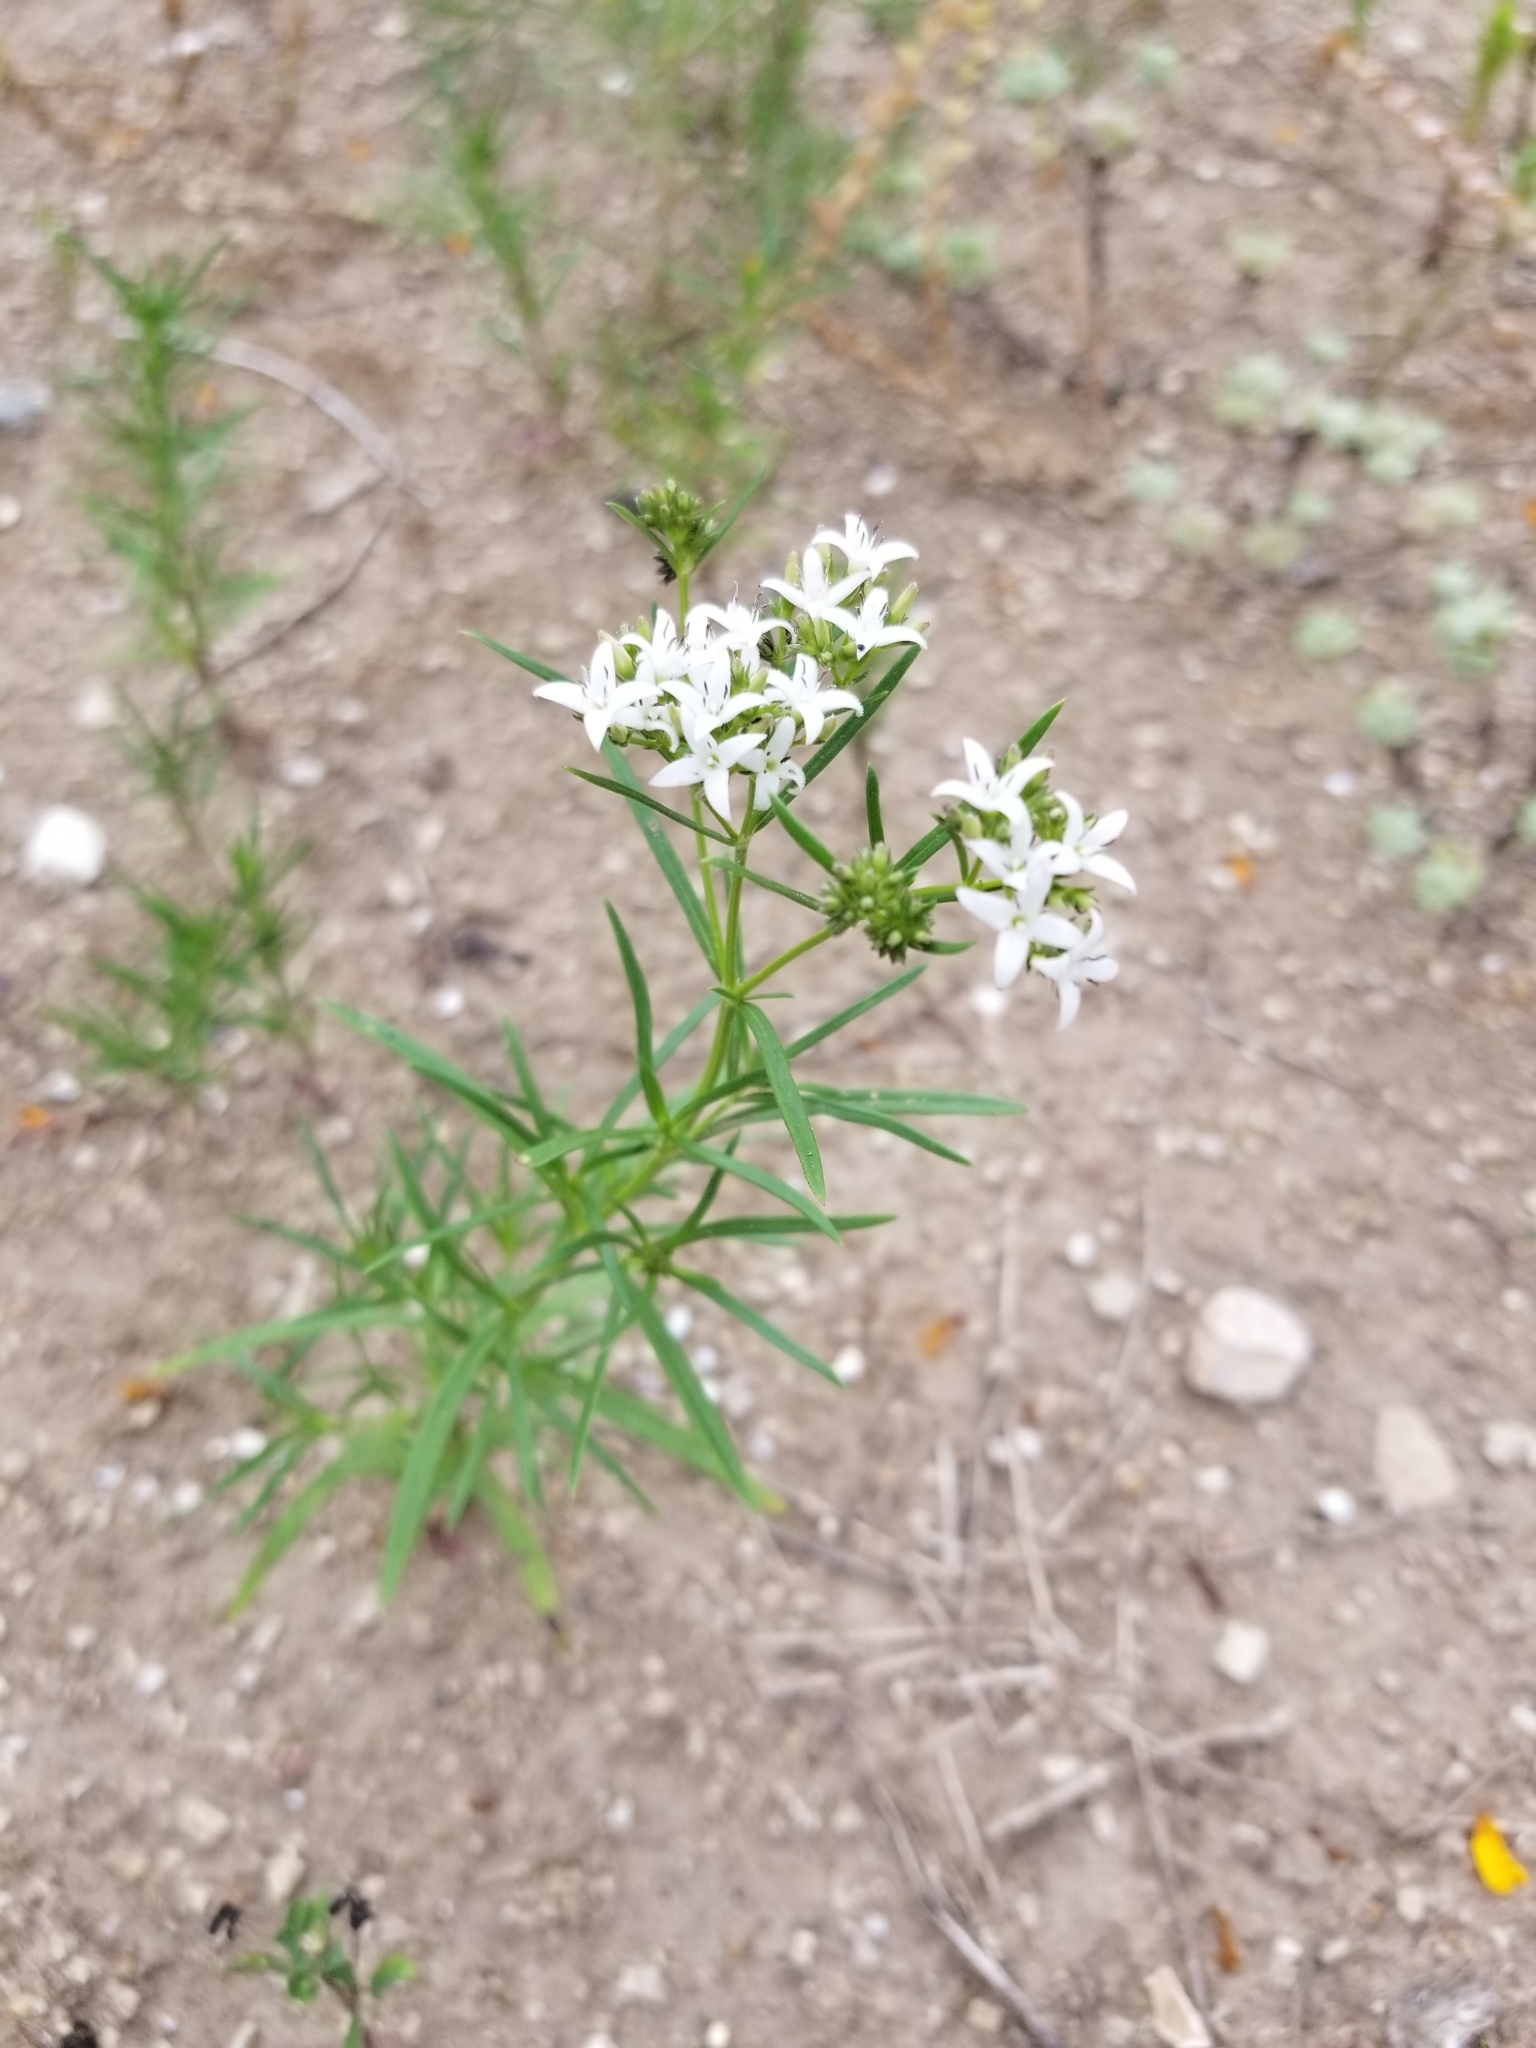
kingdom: Plantae
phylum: Tracheophyta
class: Magnoliopsida
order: Gentianales
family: Rubiaceae
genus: Stenaria
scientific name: Stenaria nigricans
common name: Diamondflowers
